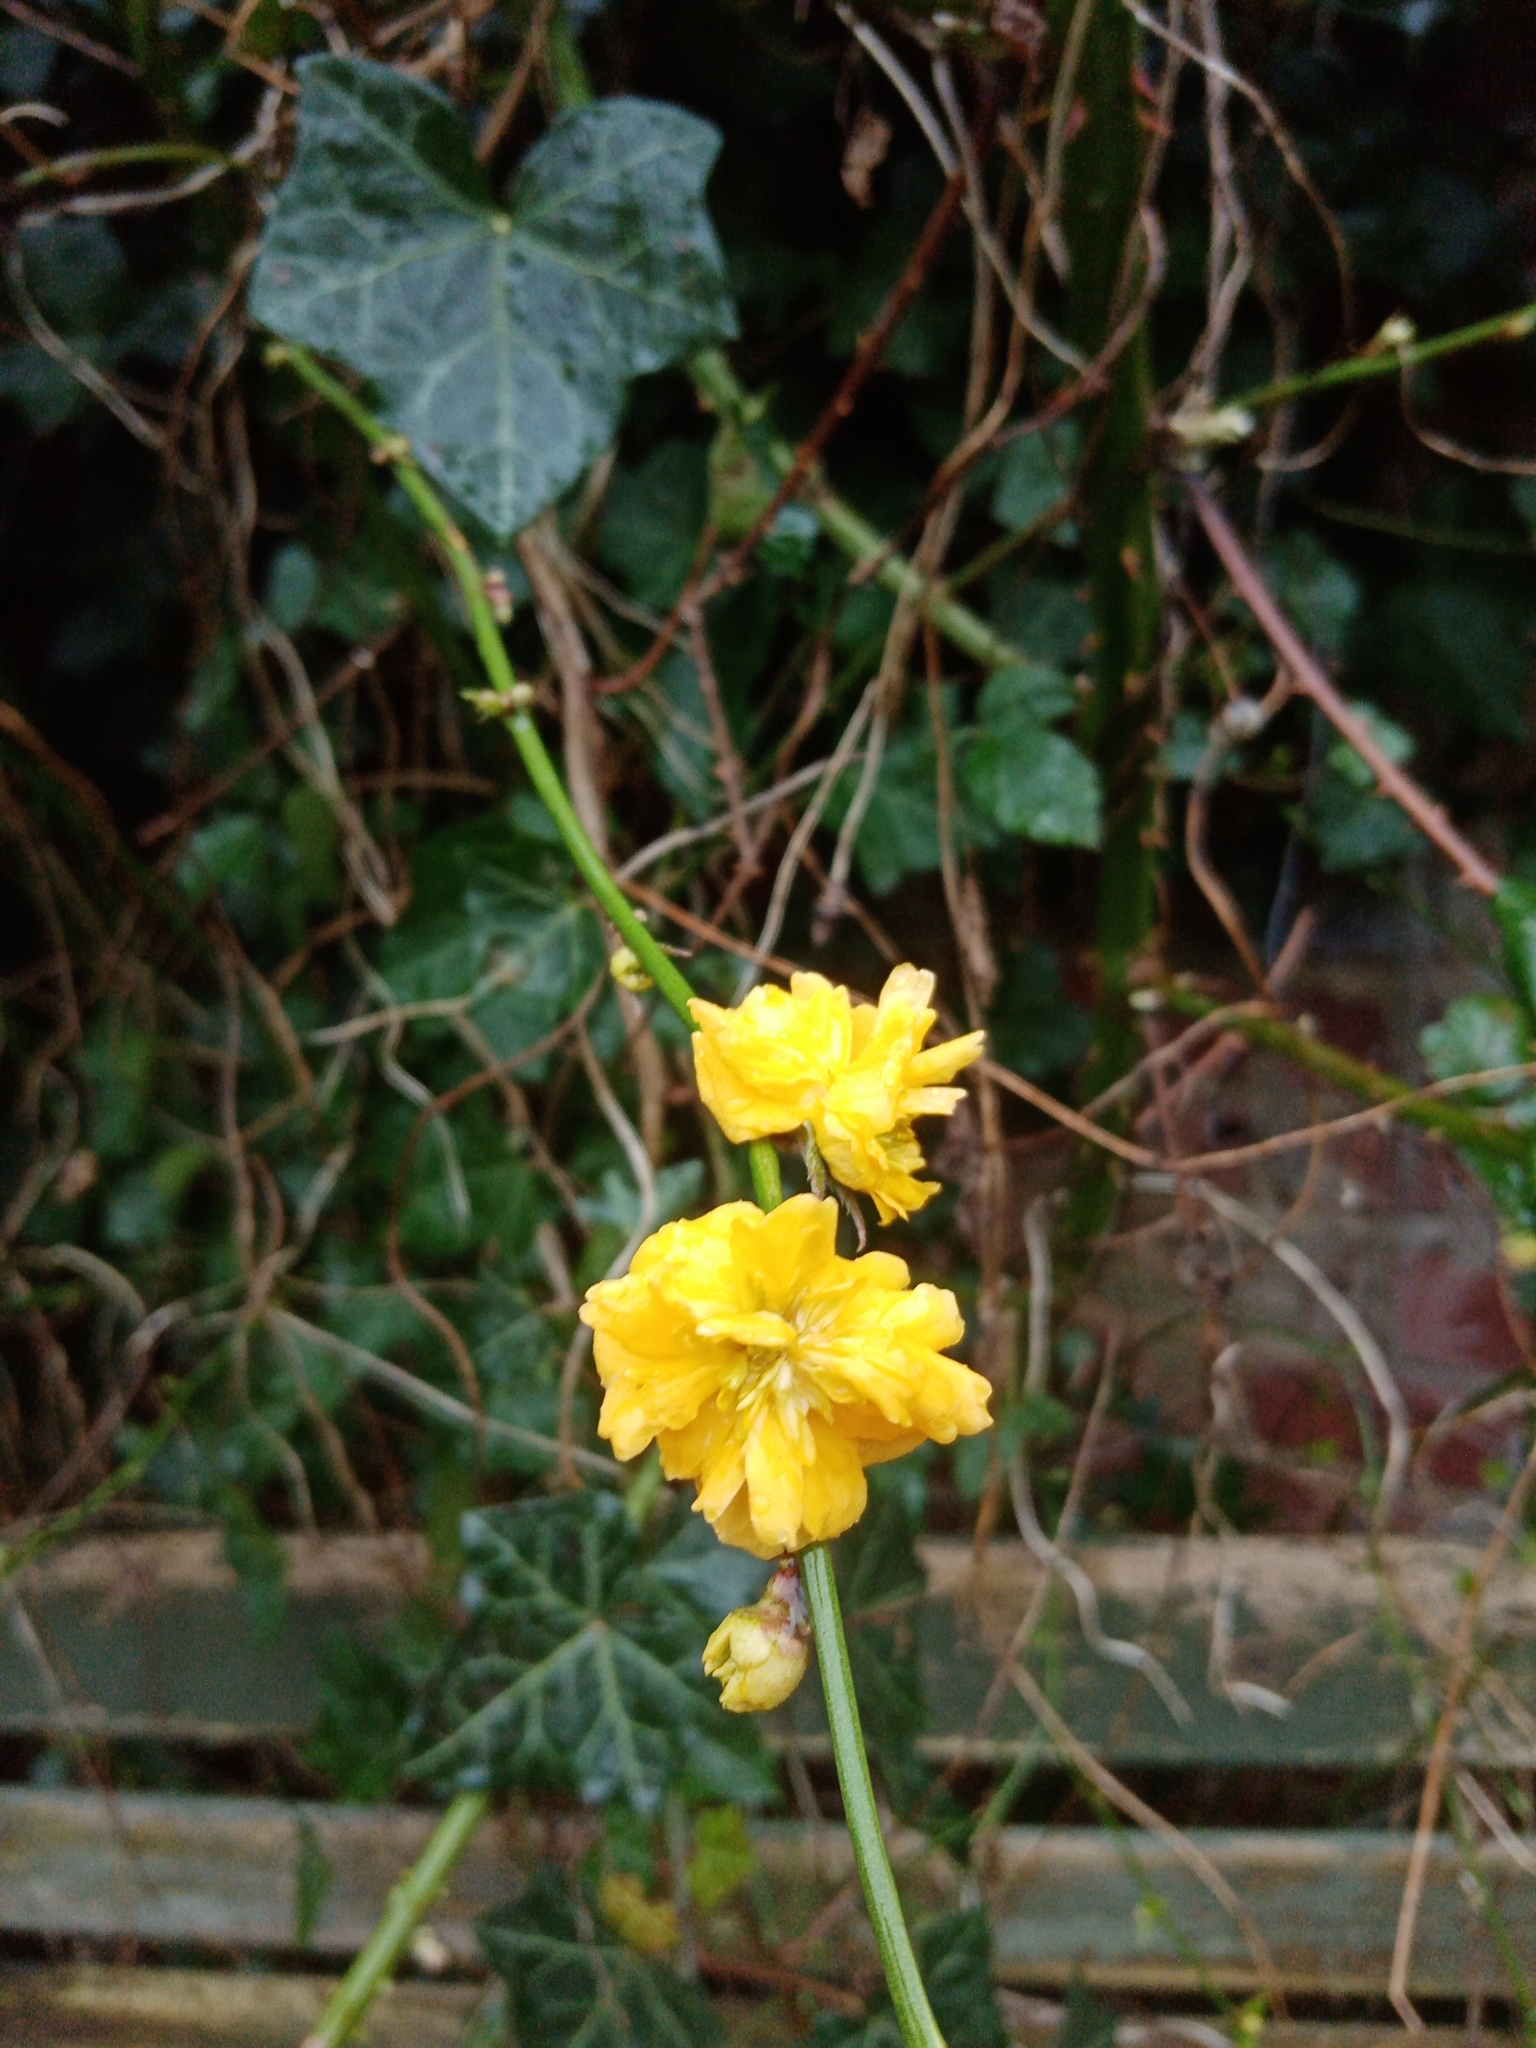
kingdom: Plantae
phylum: Tracheophyta
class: Magnoliopsida
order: Rosales
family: Rosaceae
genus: Kerria
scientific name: Kerria japonica
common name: Japanese kerria
